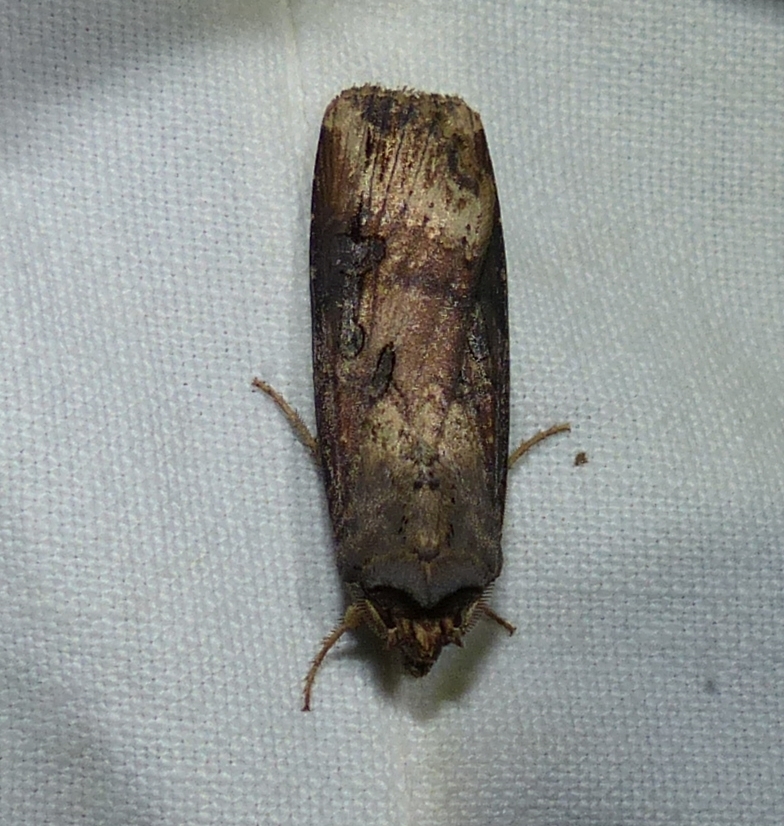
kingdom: Animalia
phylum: Arthropoda
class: Insecta
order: Lepidoptera
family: Noctuidae
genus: Agrotis
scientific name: Agrotis ipsilon
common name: Dark sword-grass
